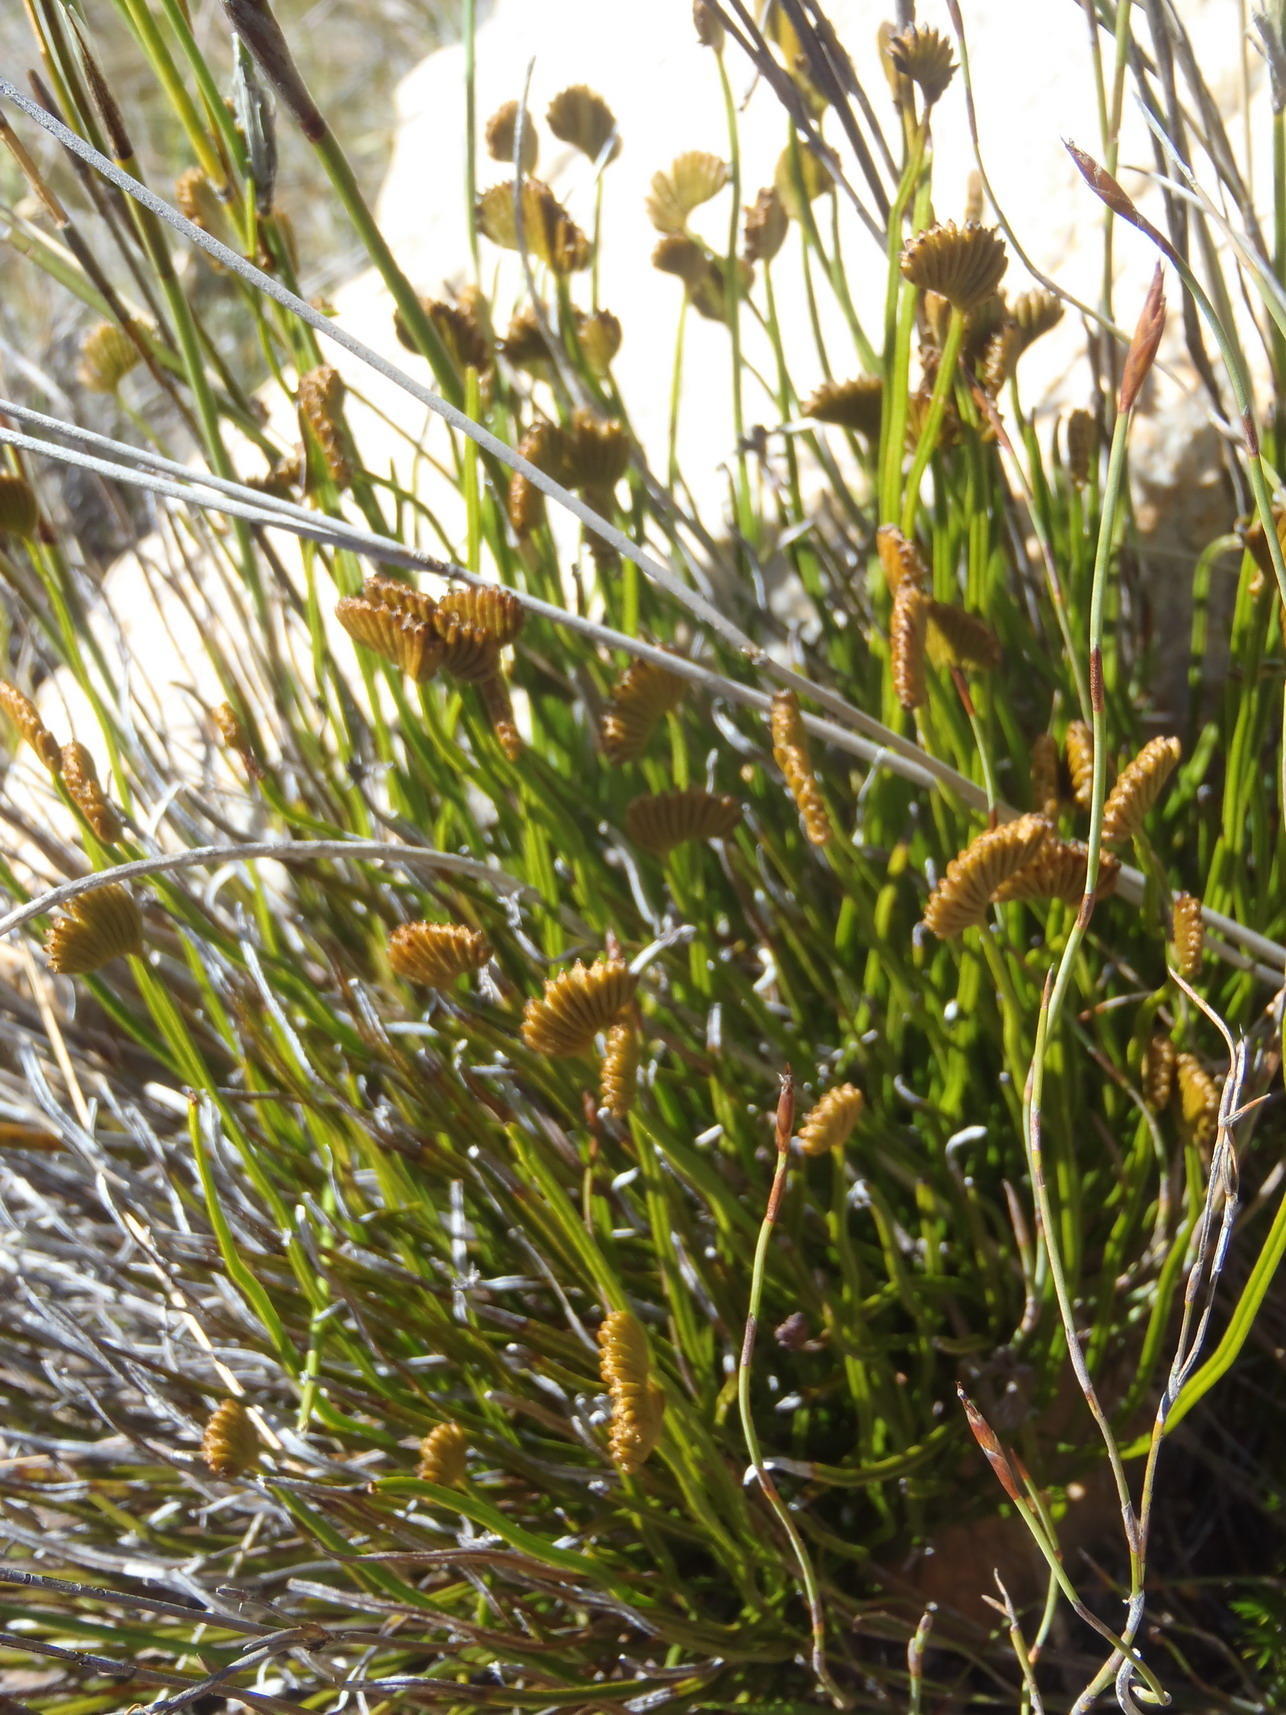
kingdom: Plantae
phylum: Tracheophyta
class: Polypodiopsida
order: Schizaeales
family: Schizaeaceae
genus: Schizaea
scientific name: Schizaea pectinata
